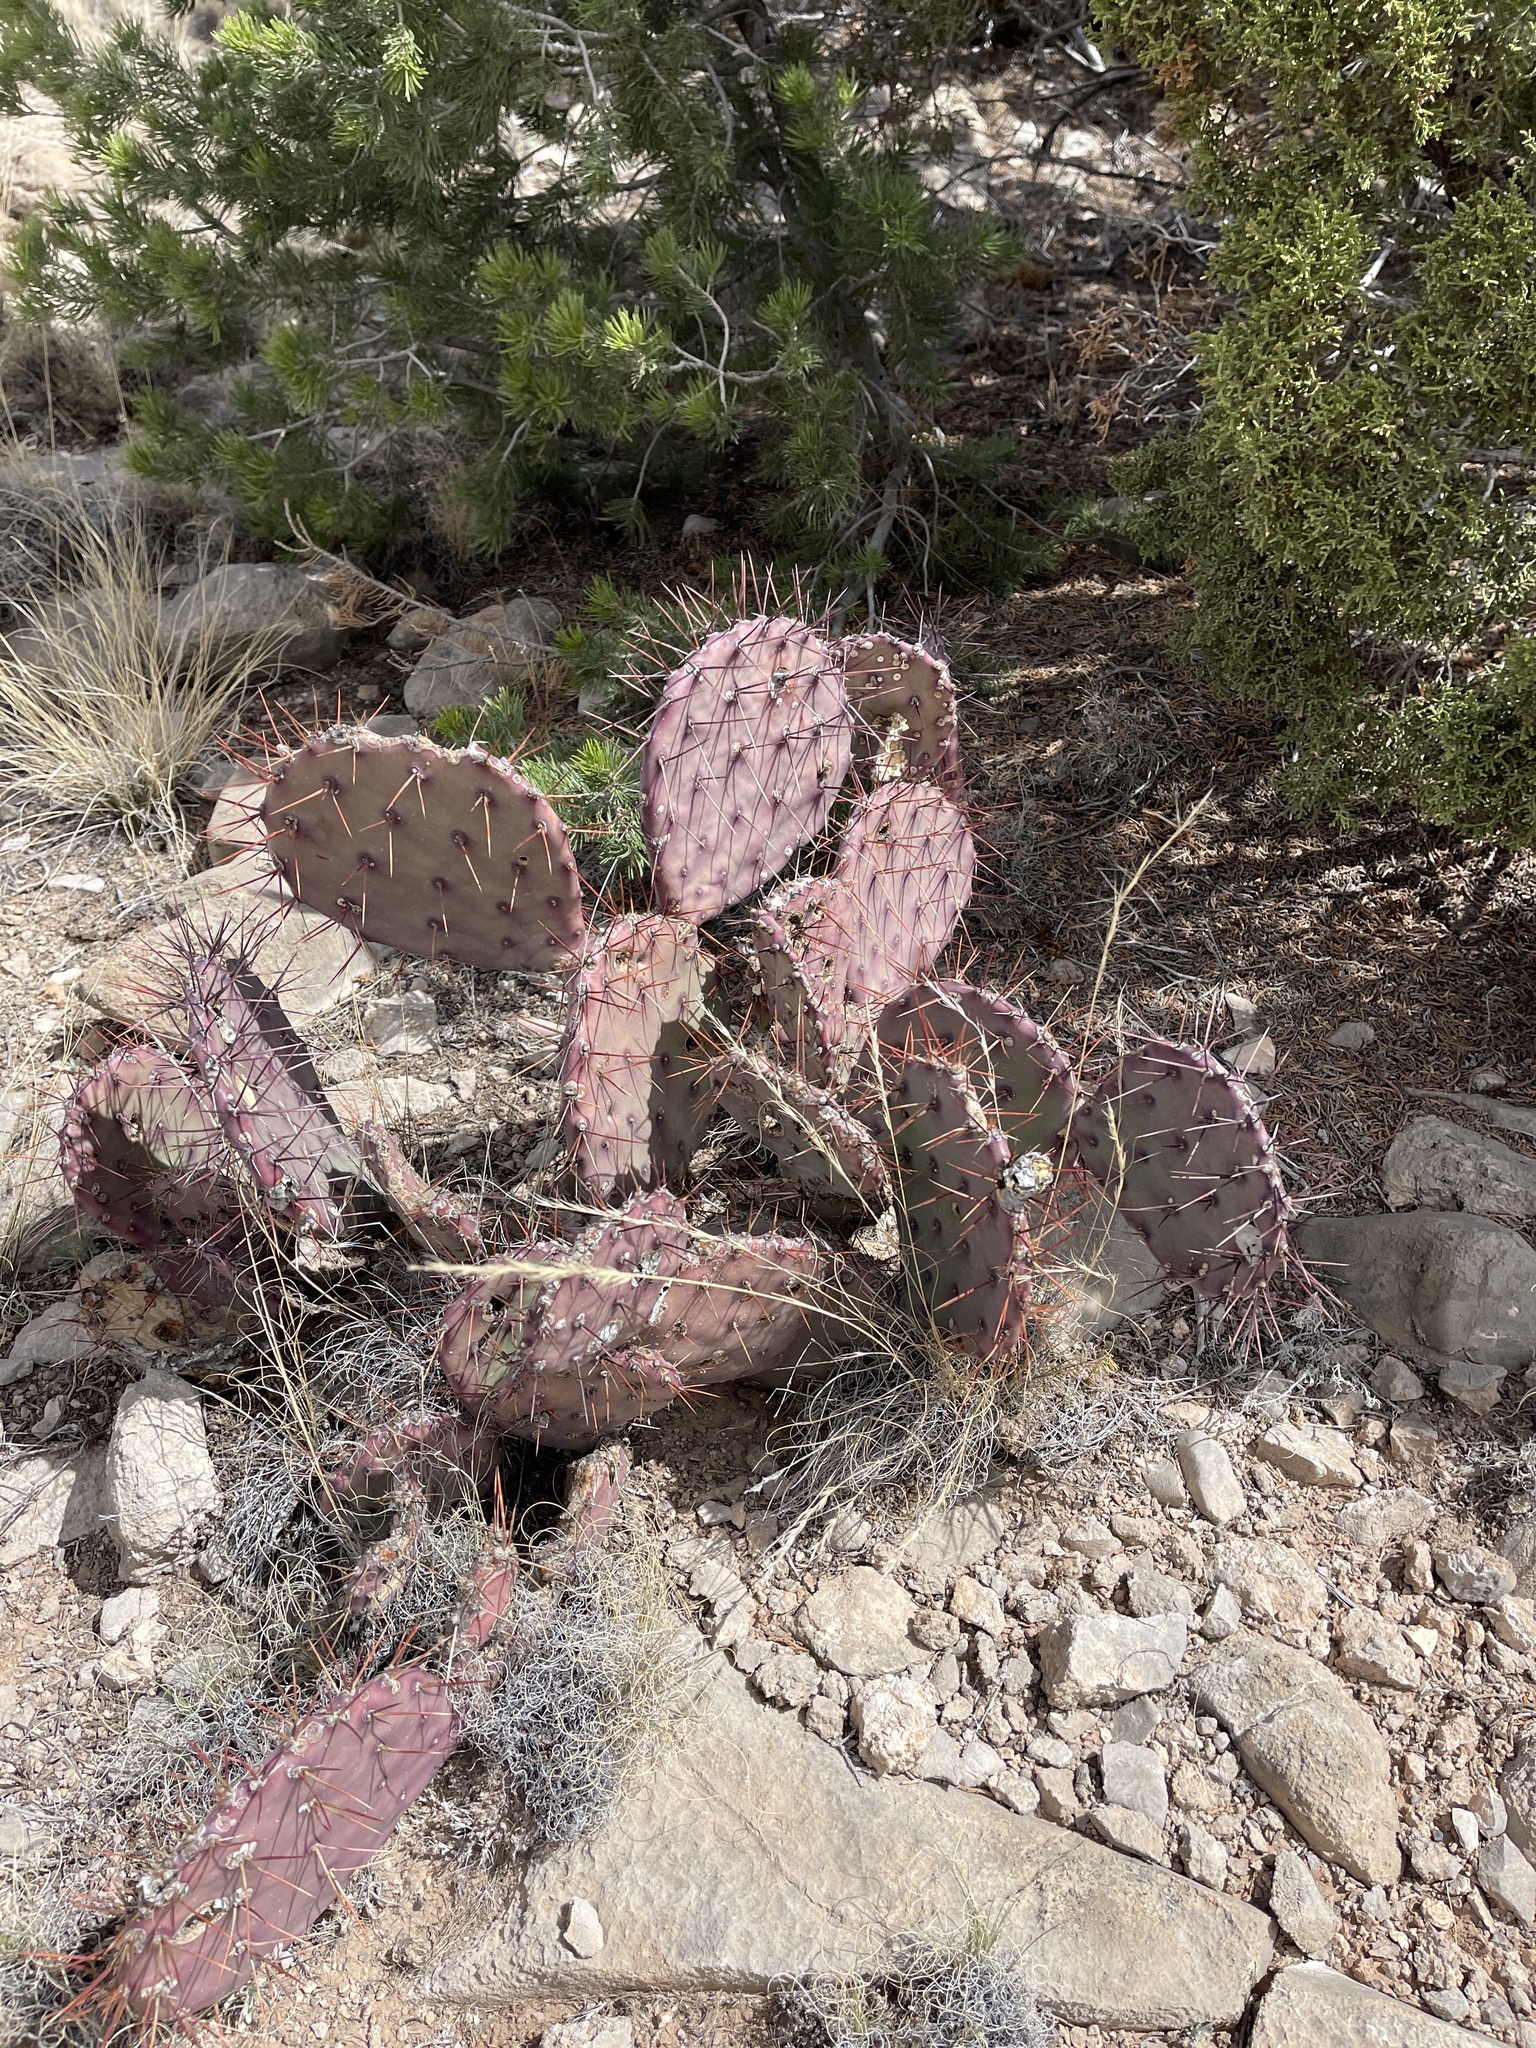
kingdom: Plantae
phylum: Tracheophyta
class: Magnoliopsida
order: Caryophyllales
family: Cactaceae
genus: Opuntia
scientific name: Opuntia macrocentra
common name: Purple prickly-pear
